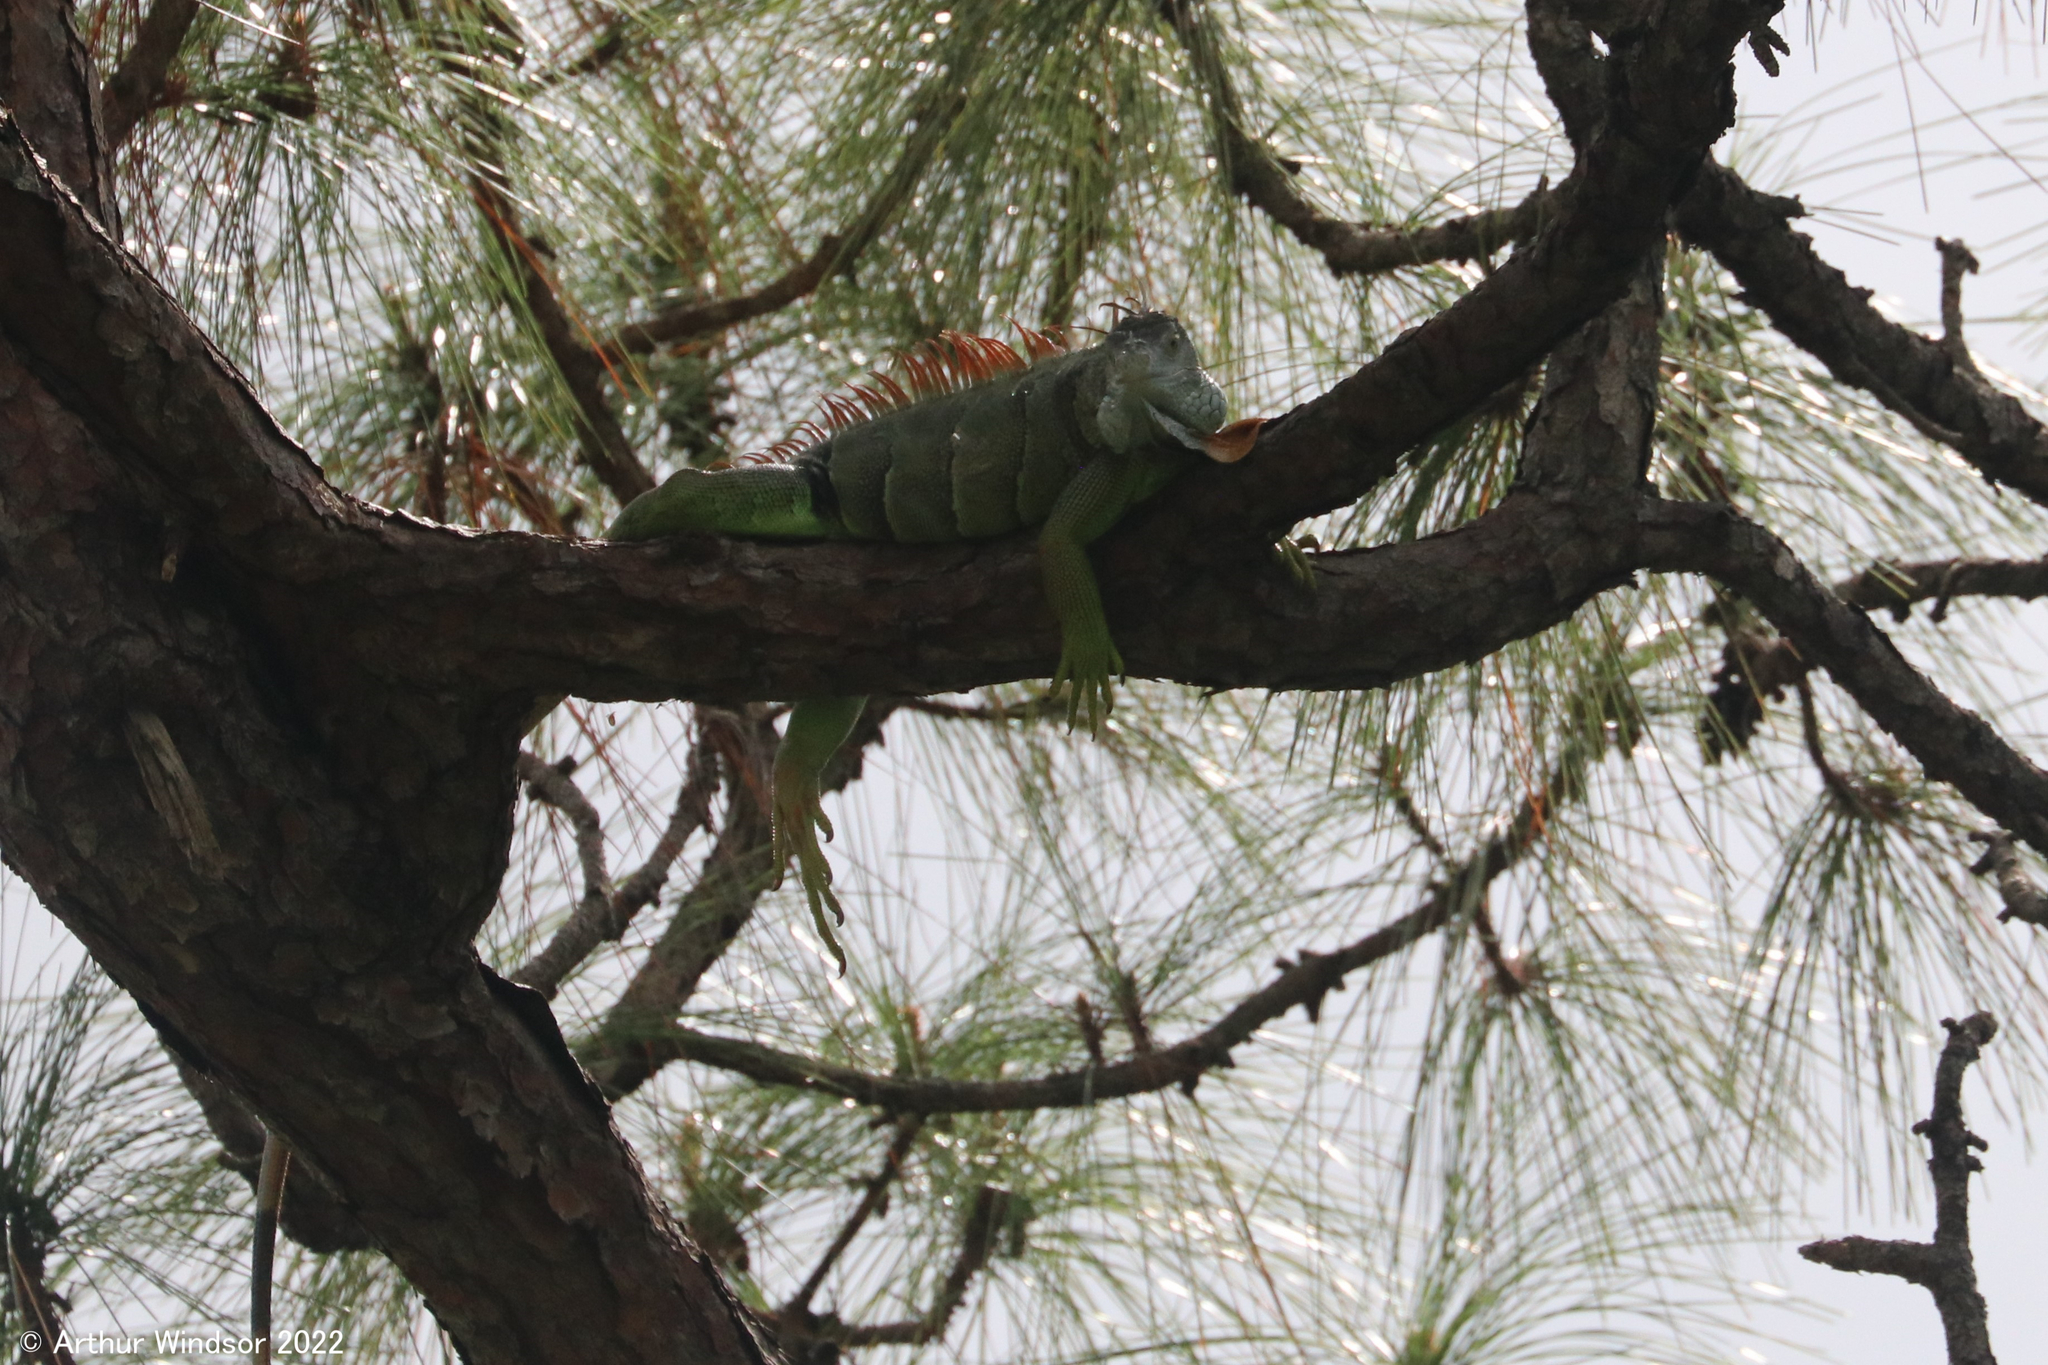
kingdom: Animalia
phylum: Chordata
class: Squamata
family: Iguanidae
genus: Iguana
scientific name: Iguana iguana
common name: Green iguana
